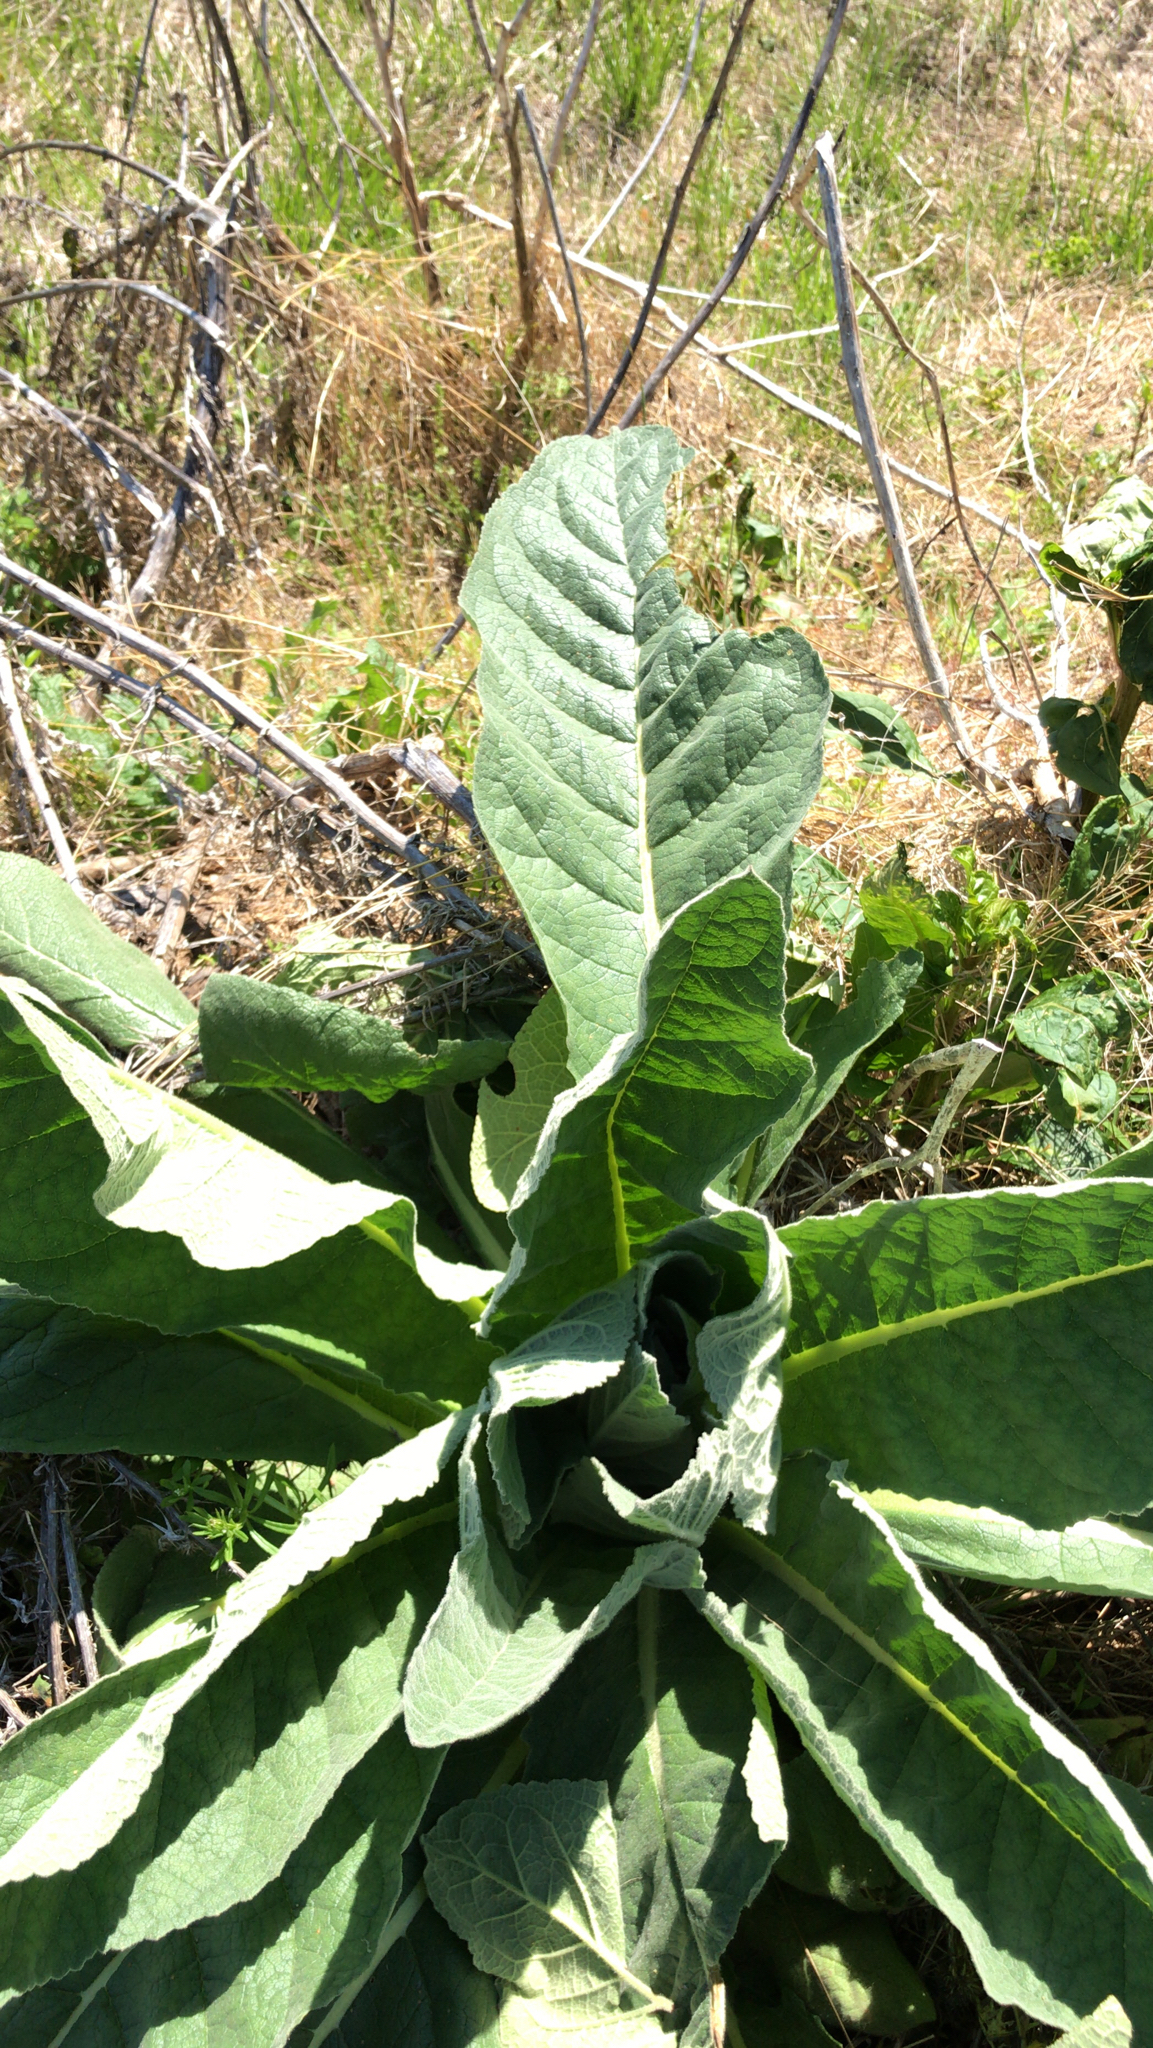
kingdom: Plantae
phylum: Tracheophyta
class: Magnoliopsida
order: Lamiales
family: Scrophulariaceae
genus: Verbascum
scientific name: Verbascum thapsus
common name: Common mullein
